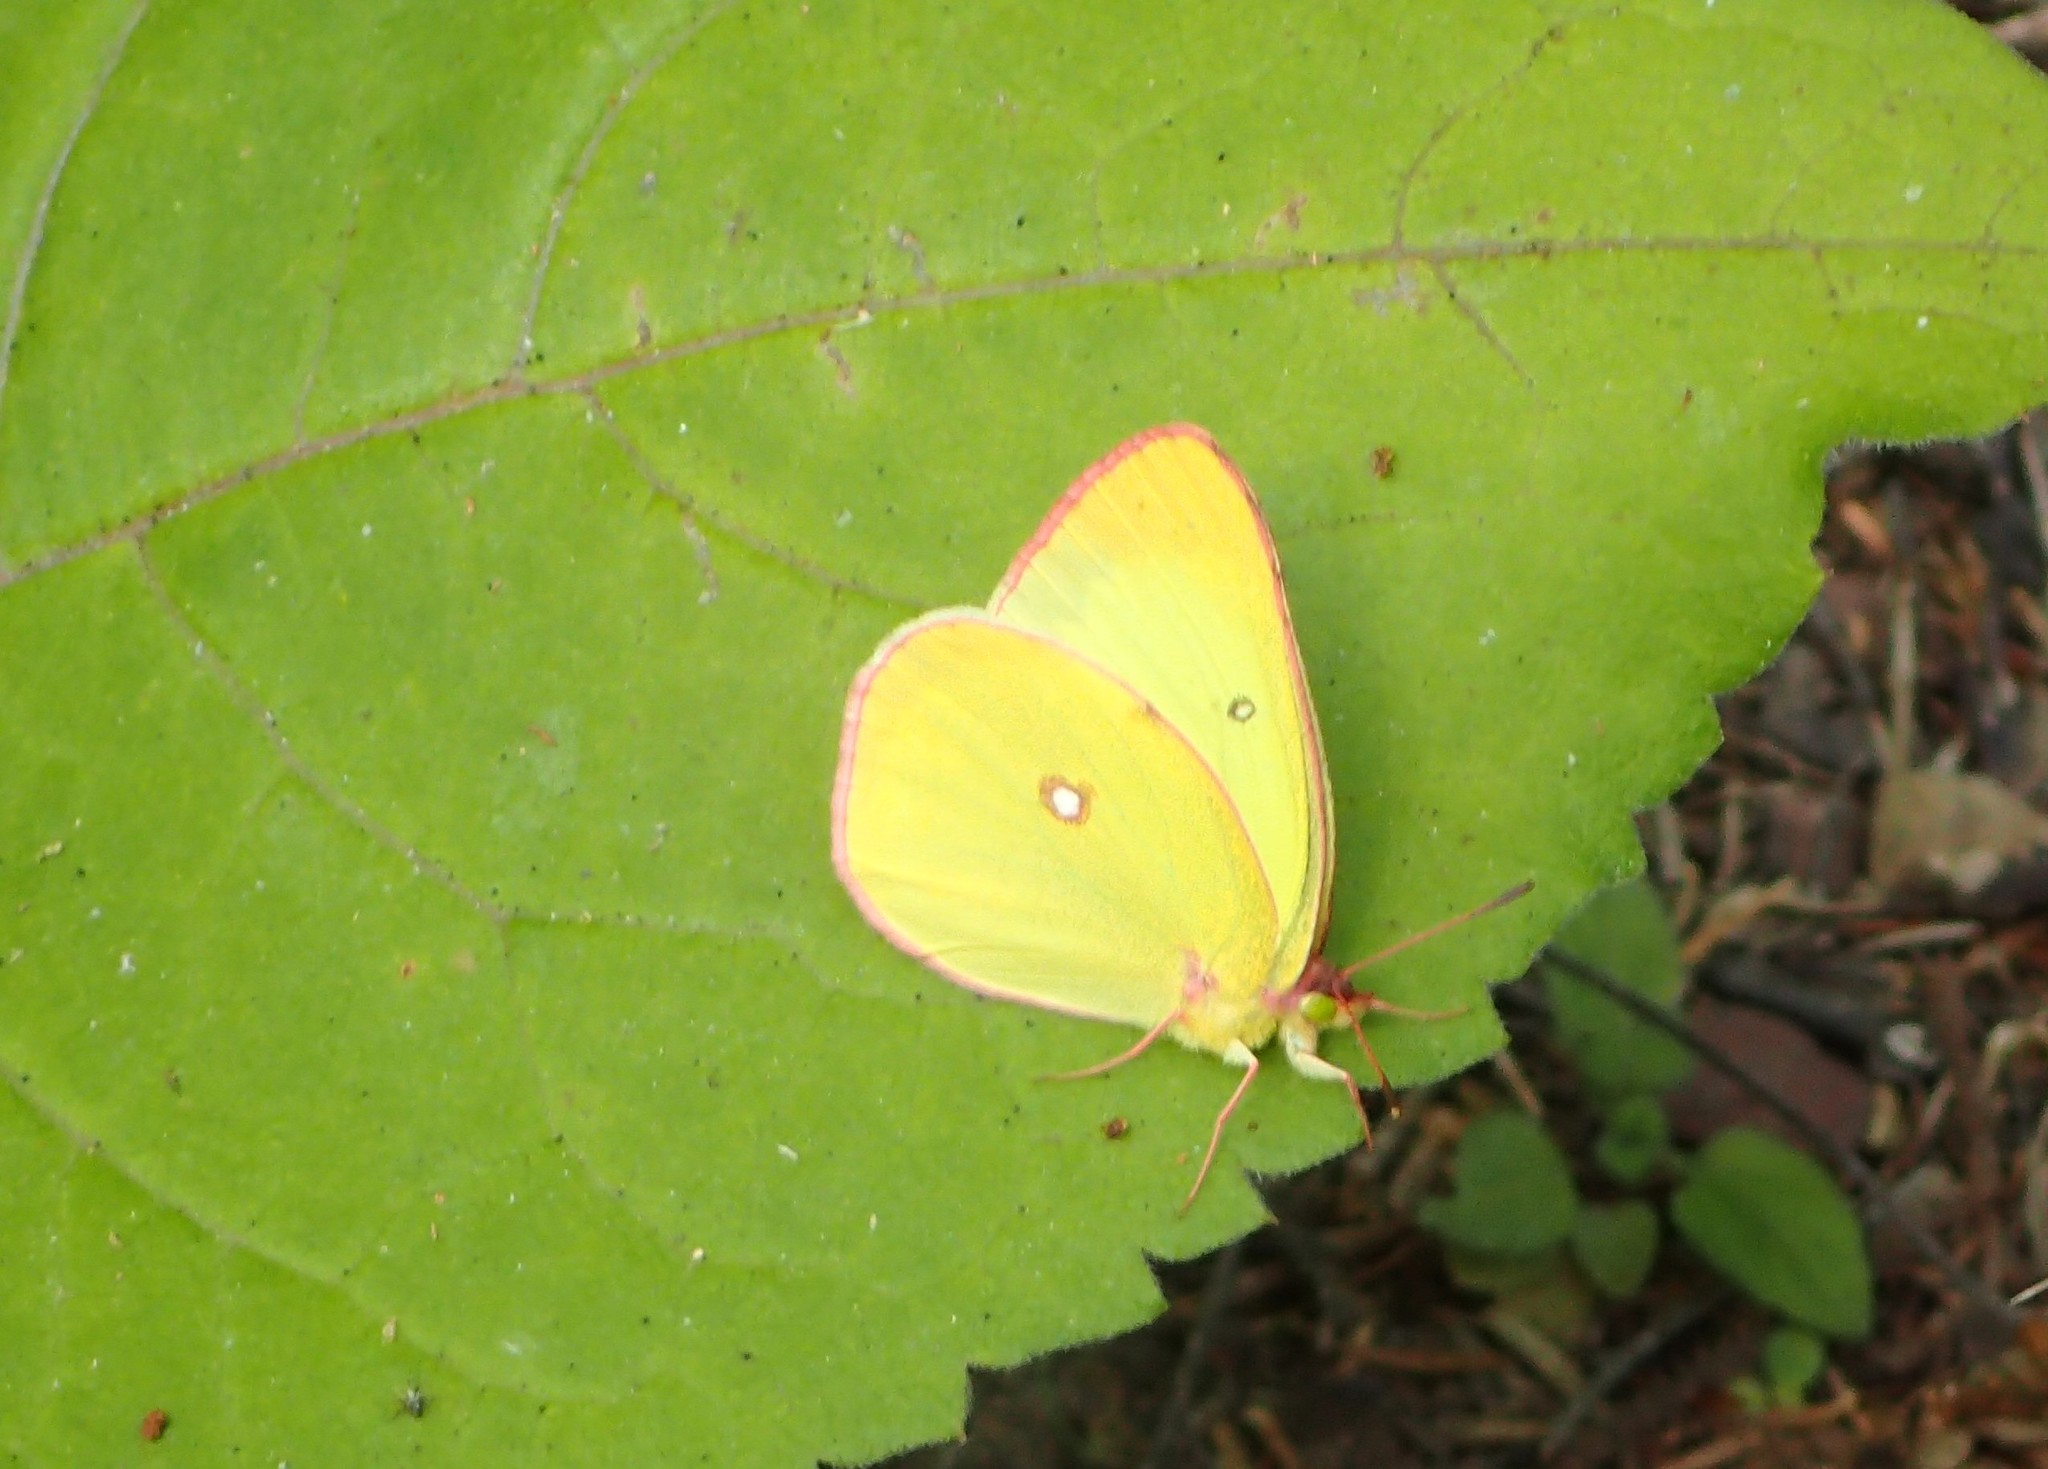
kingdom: Animalia
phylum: Arthropoda
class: Insecta
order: Lepidoptera
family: Pieridae
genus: Colias
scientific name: Colias interior
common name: Pink-edged sulphur
